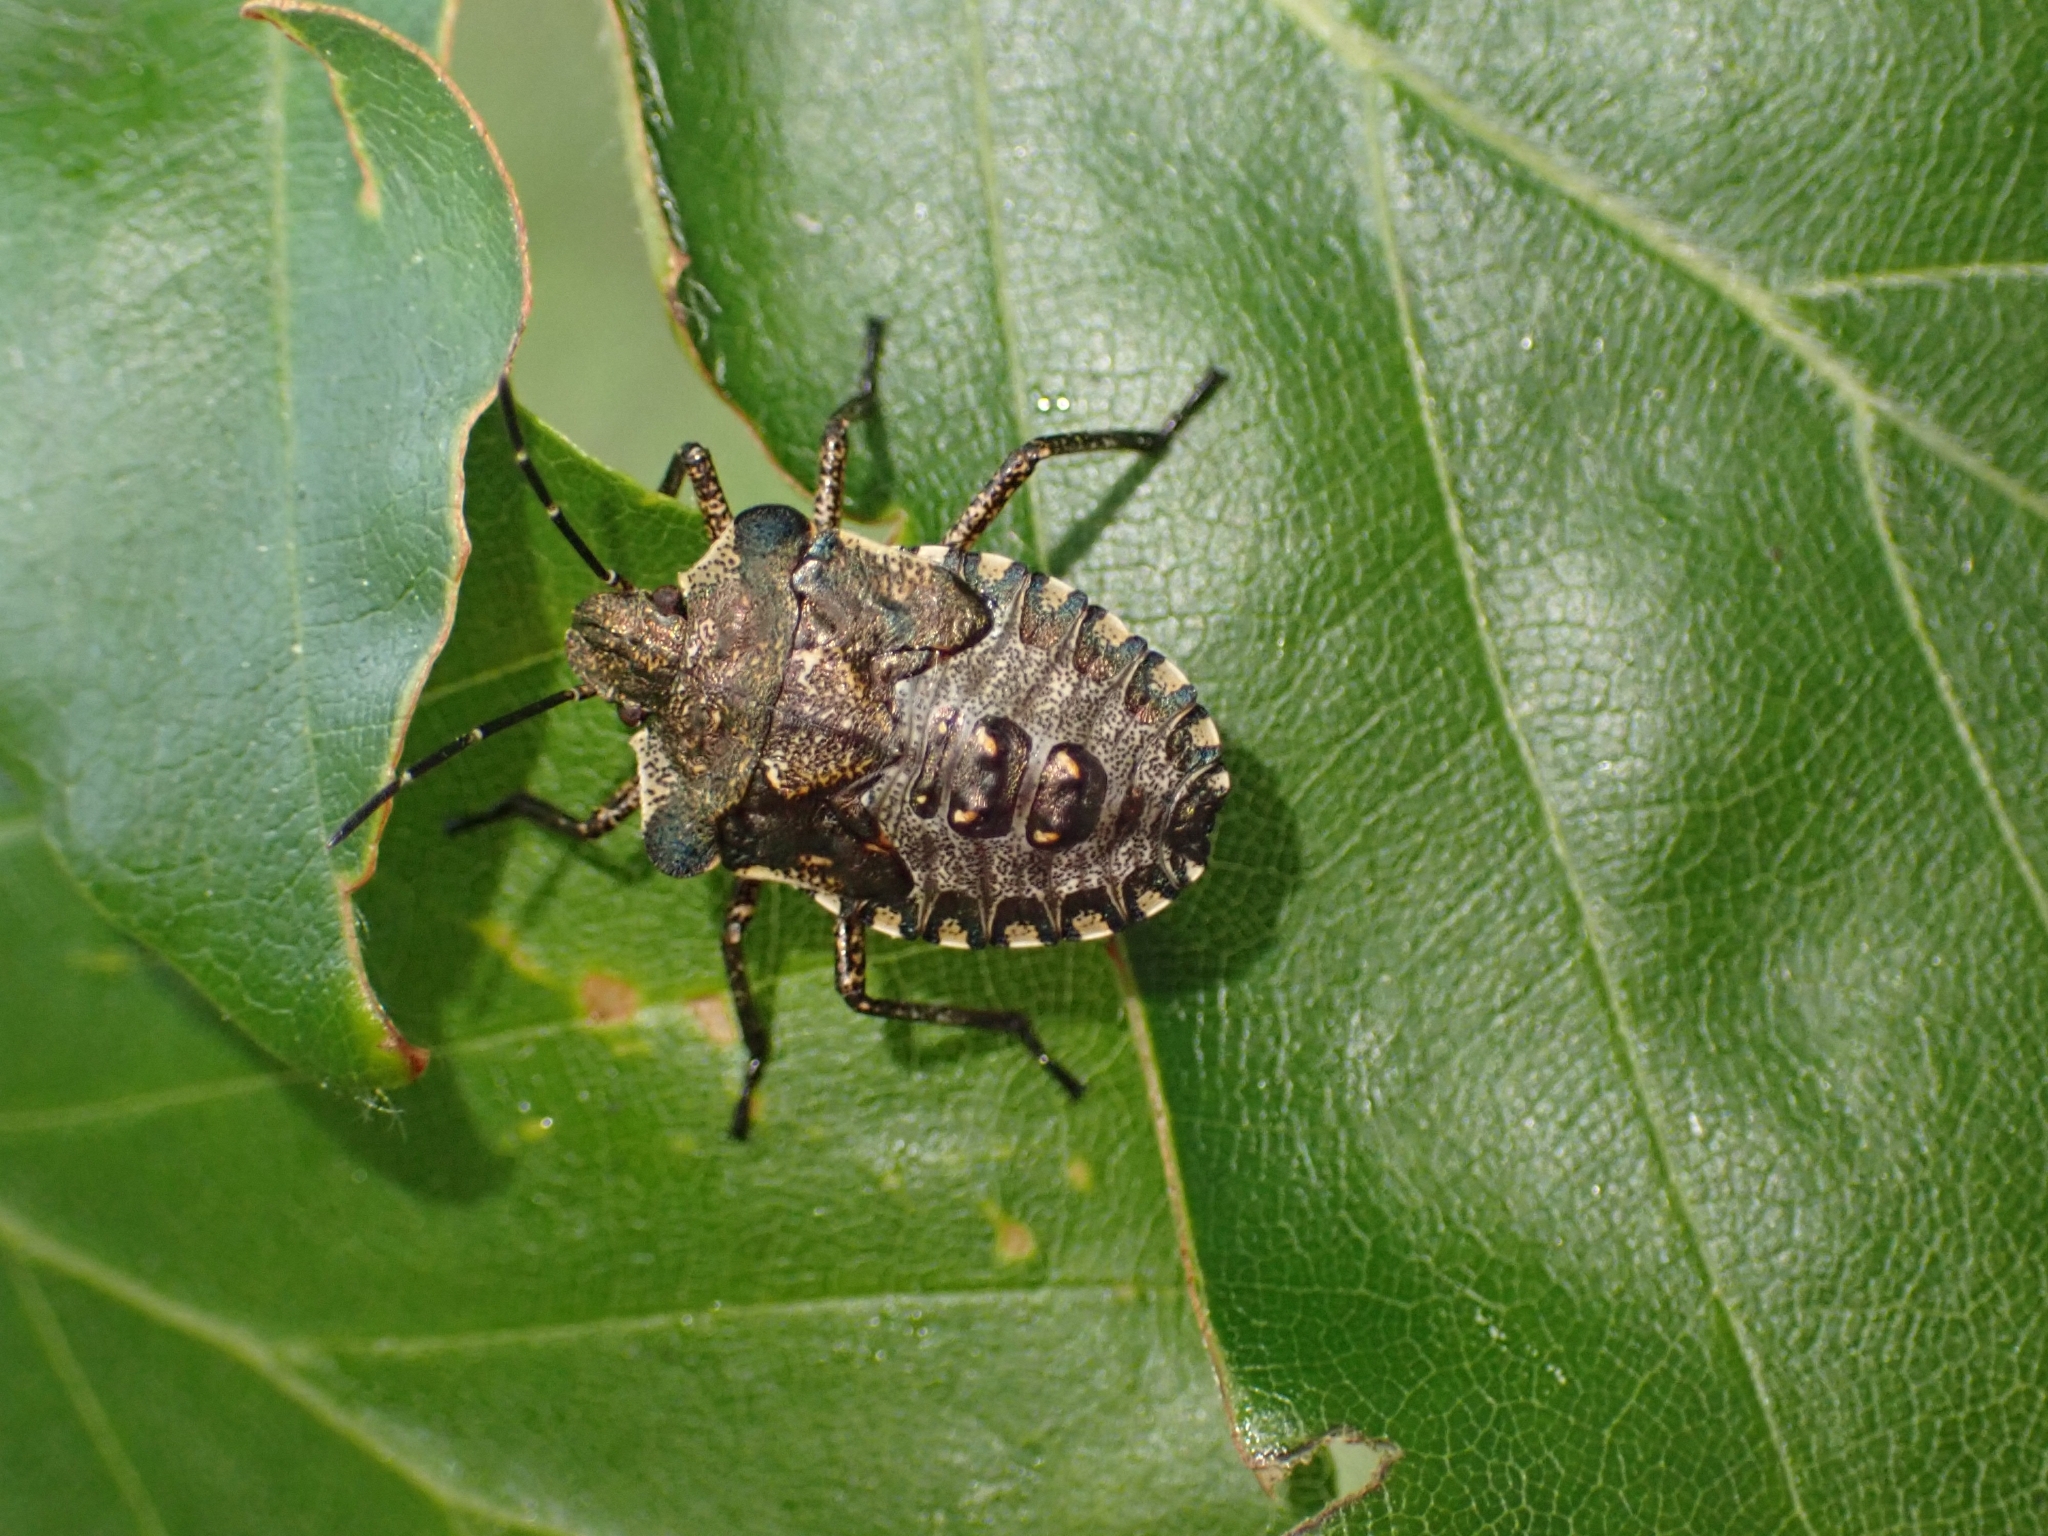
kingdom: Animalia
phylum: Arthropoda
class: Insecta
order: Hemiptera
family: Pentatomidae
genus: Pentatoma
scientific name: Pentatoma rufipes
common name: Forest bug
